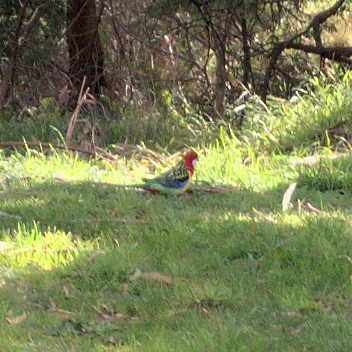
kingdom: Animalia
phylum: Chordata
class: Aves
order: Psittaciformes
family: Psittacidae
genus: Platycercus
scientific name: Platycercus eximius
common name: Eastern rosella
